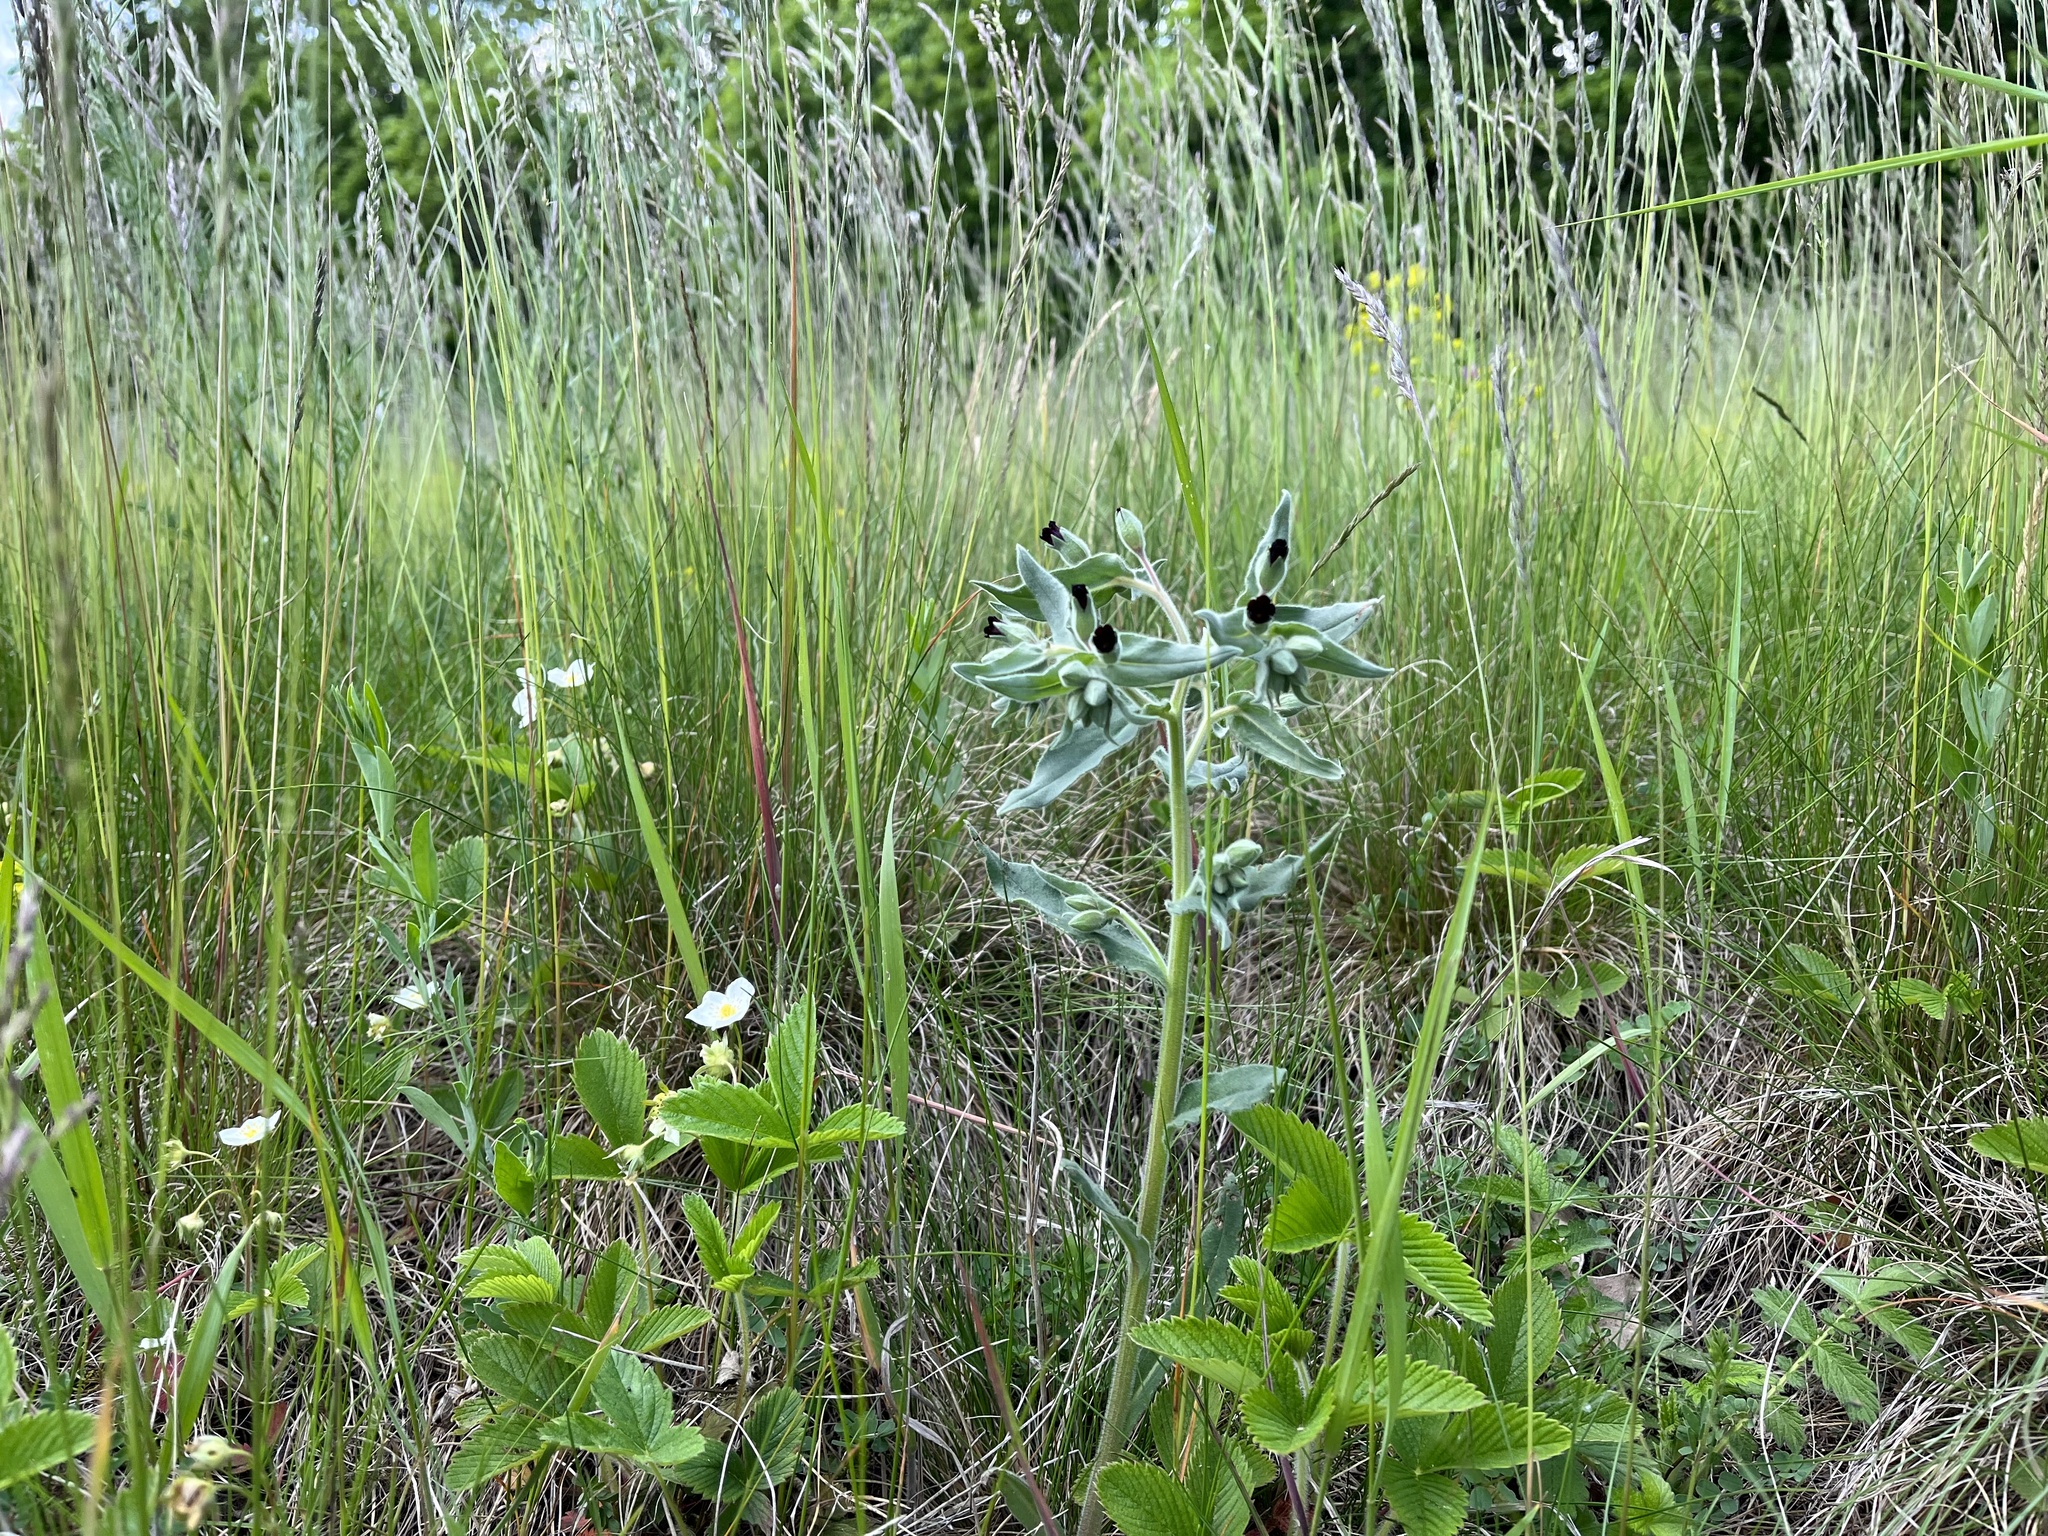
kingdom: Plantae
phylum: Tracheophyta
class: Magnoliopsida
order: Boraginales
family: Boraginaceae
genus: Nonea
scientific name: Nonea pulla
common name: Brown nonea
